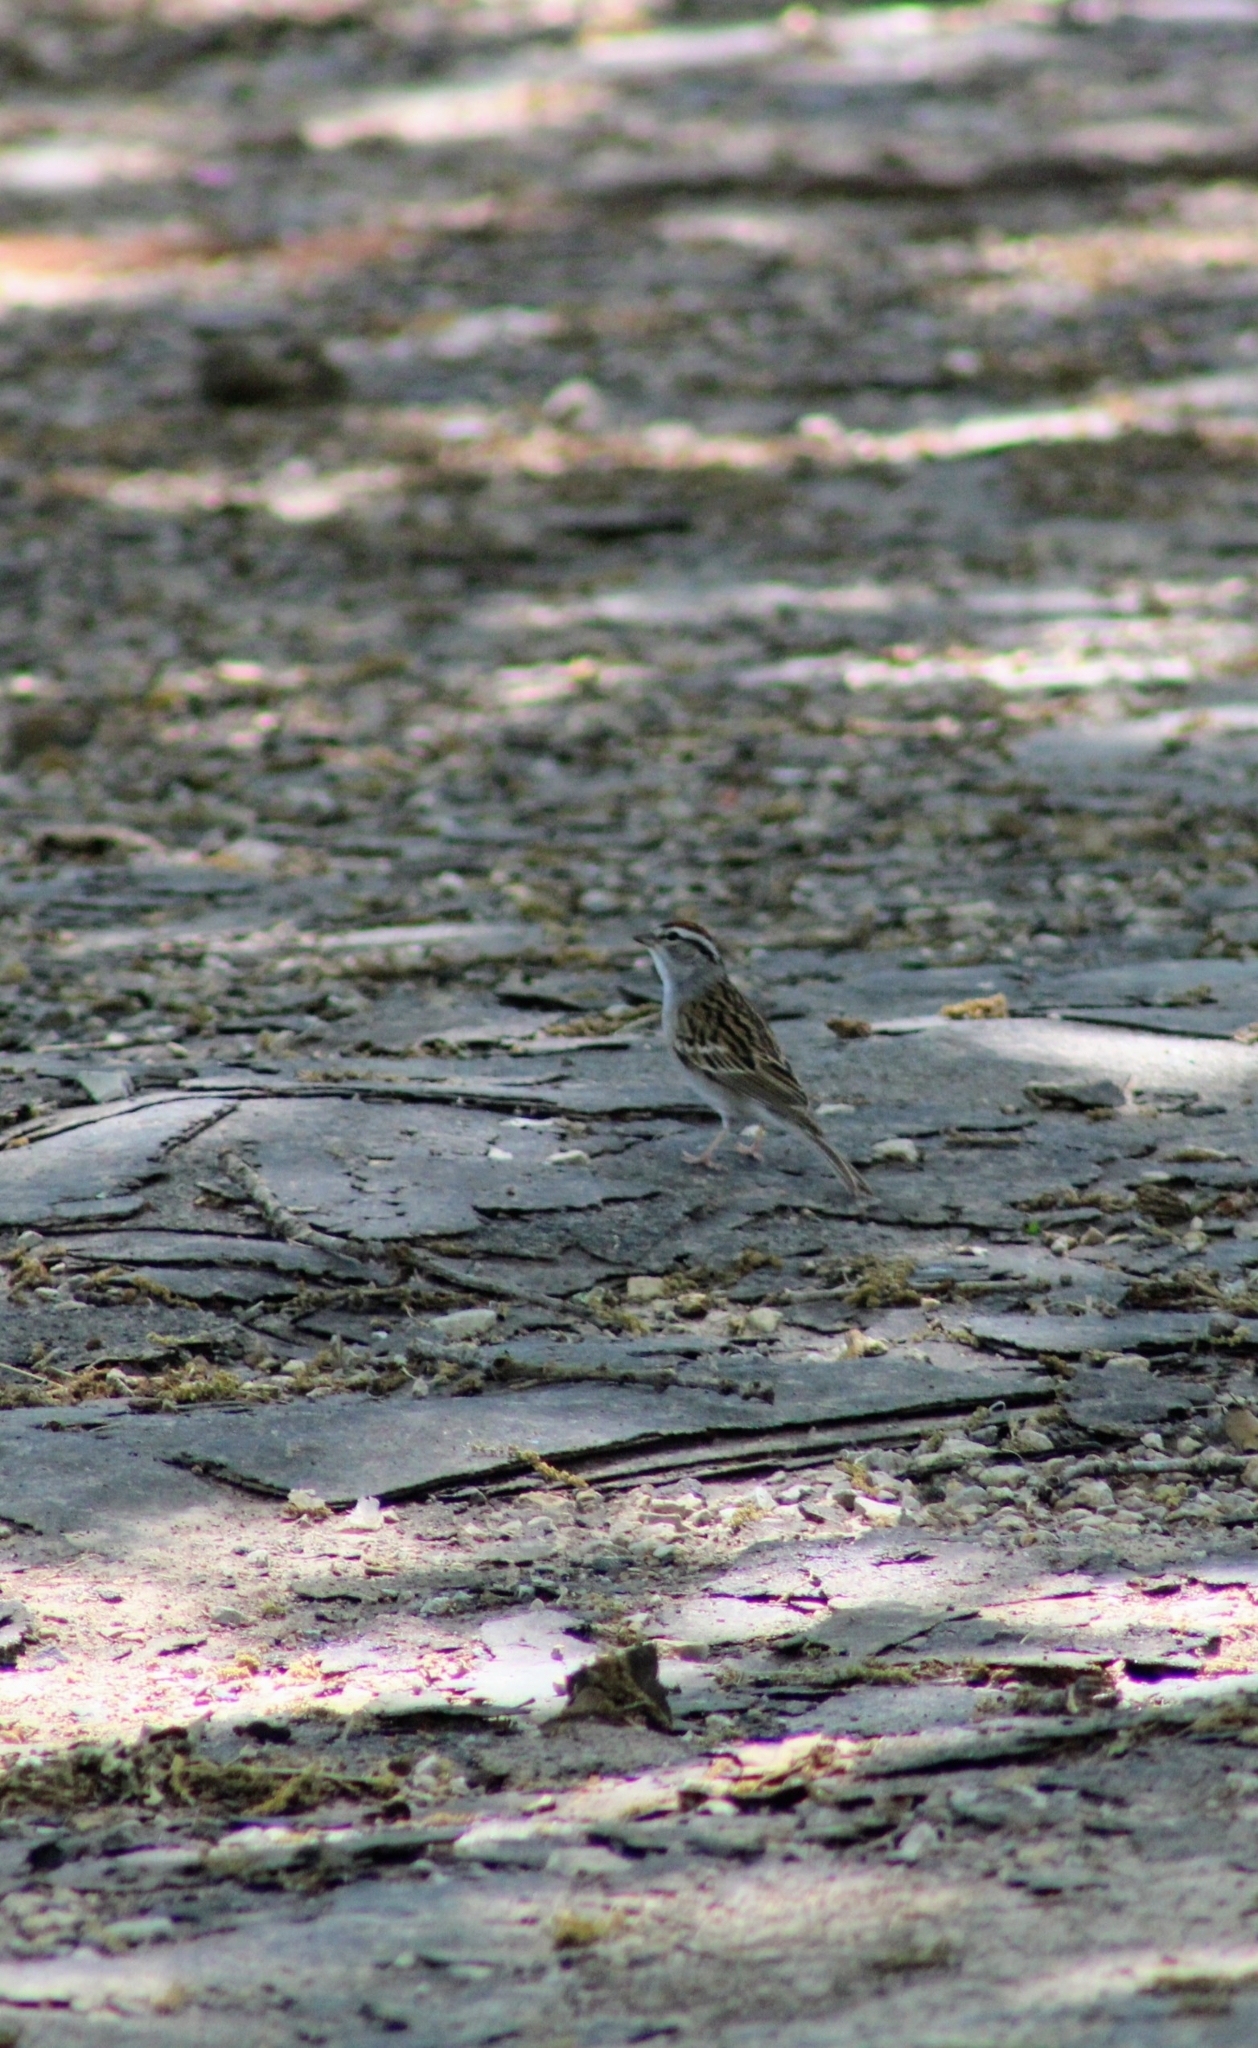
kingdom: Animalia
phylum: Chordata
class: Aves
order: Passeriformes
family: Passerellidae
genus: Spizella
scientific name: Spizella passerina
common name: Chipping sparrow
